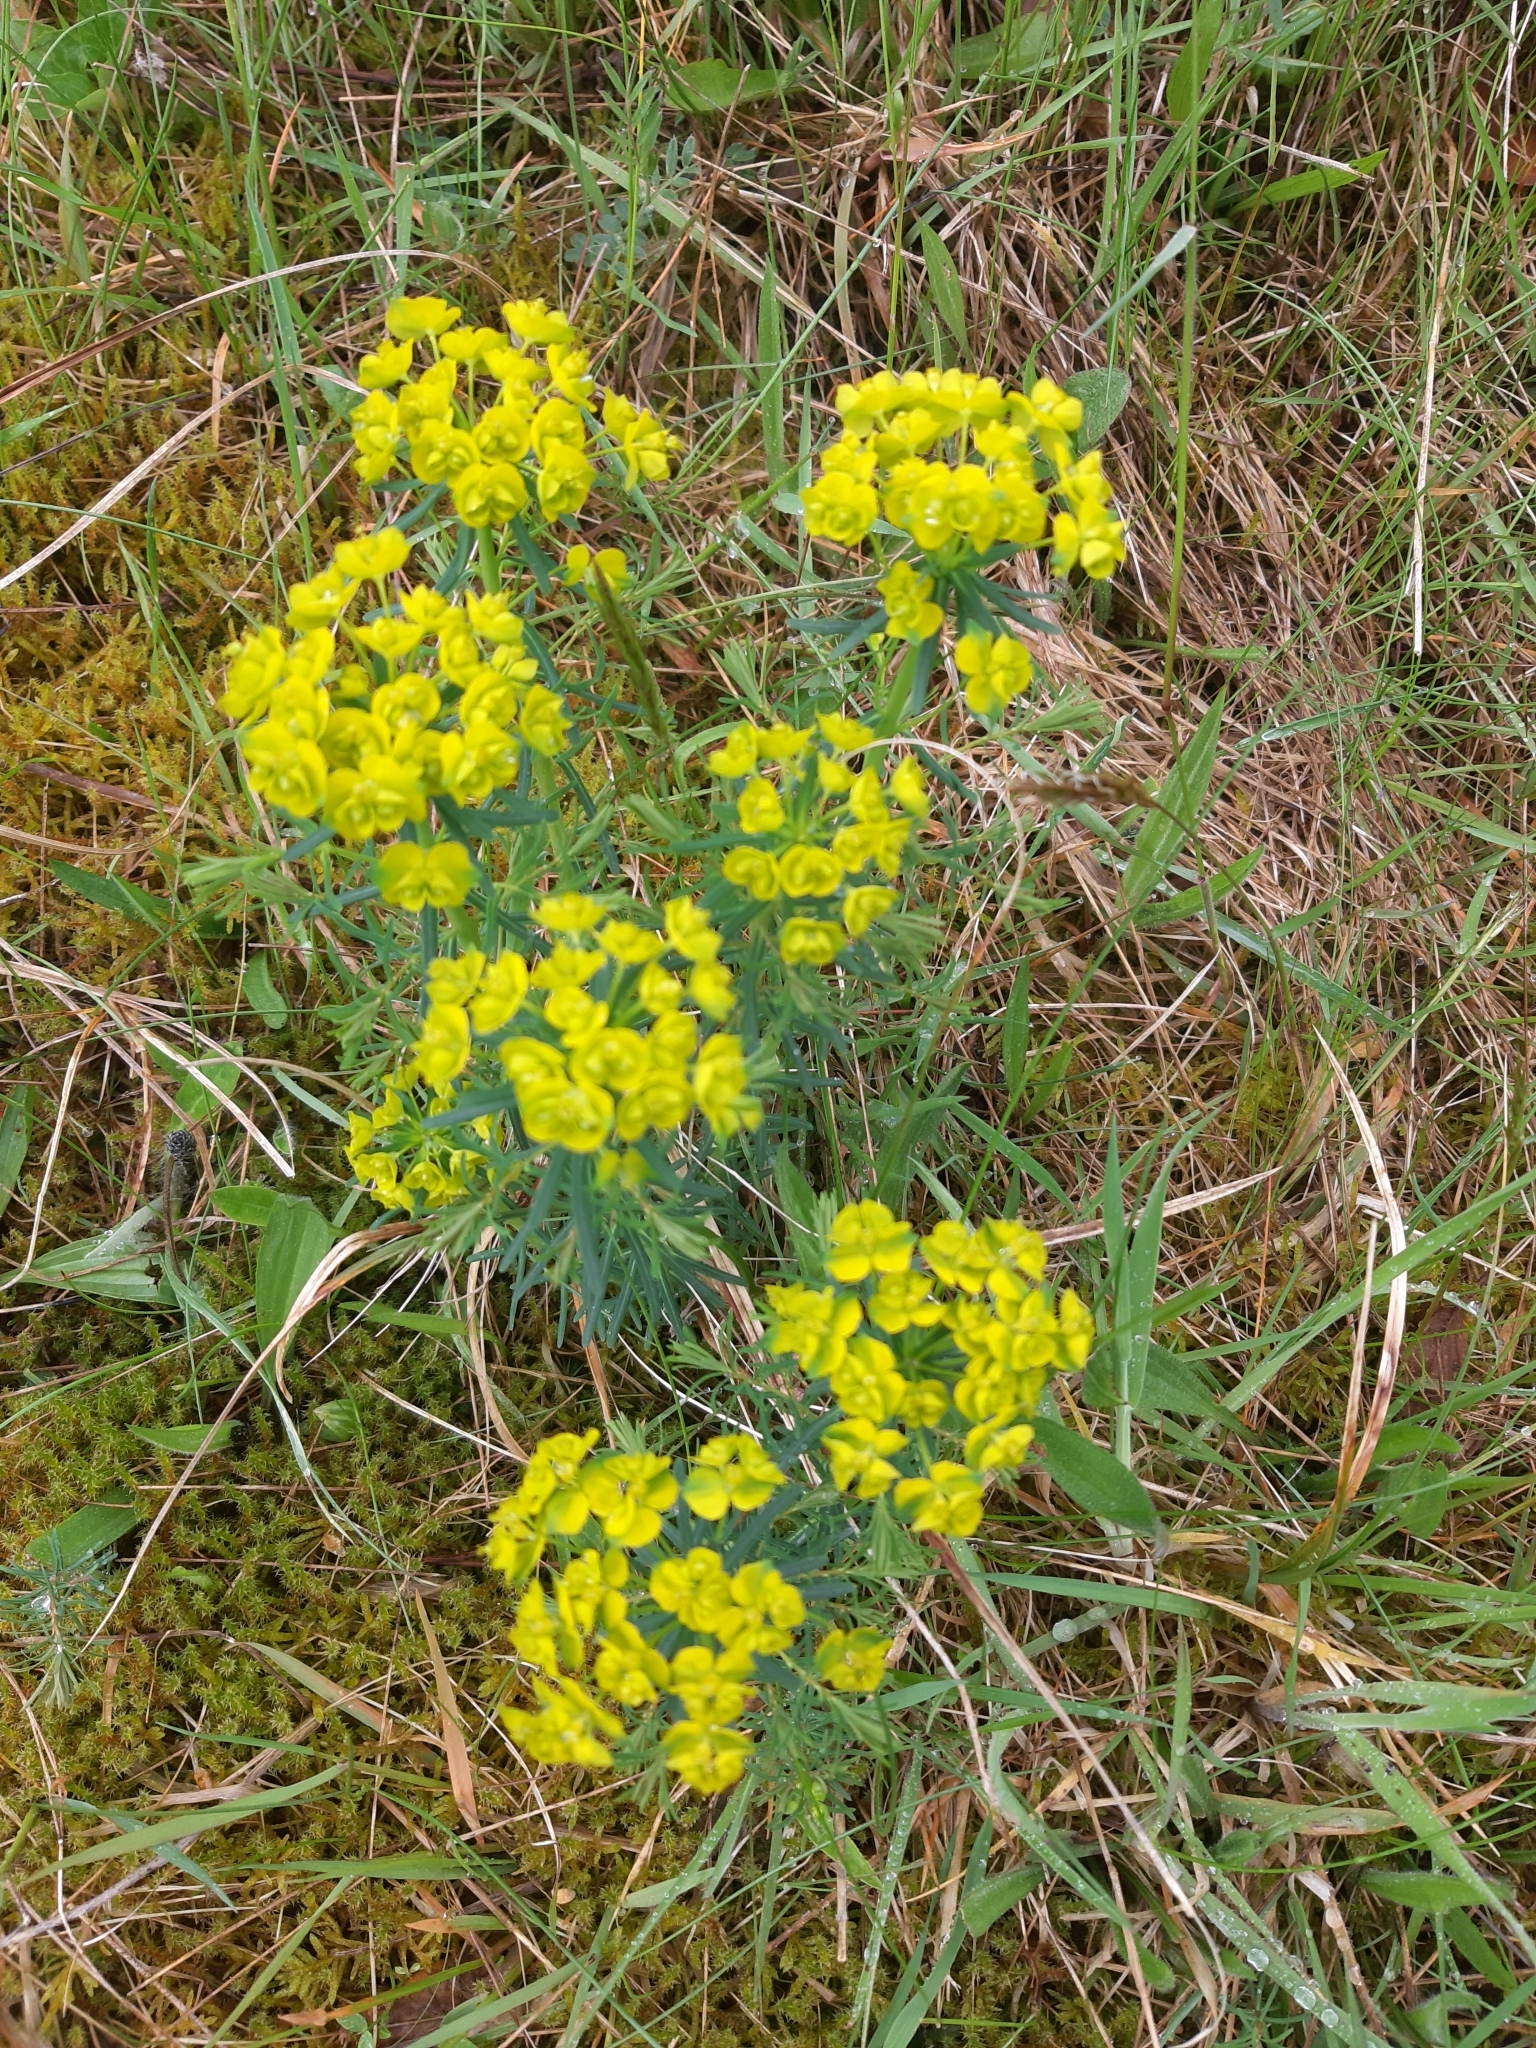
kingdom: Plantae
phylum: Tracheophyta
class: Magnoliopsida
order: Malpighiales
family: Euphorbiaceae
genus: Euphorbia
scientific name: Euphorbia cyparissias
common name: Cypress spurge
